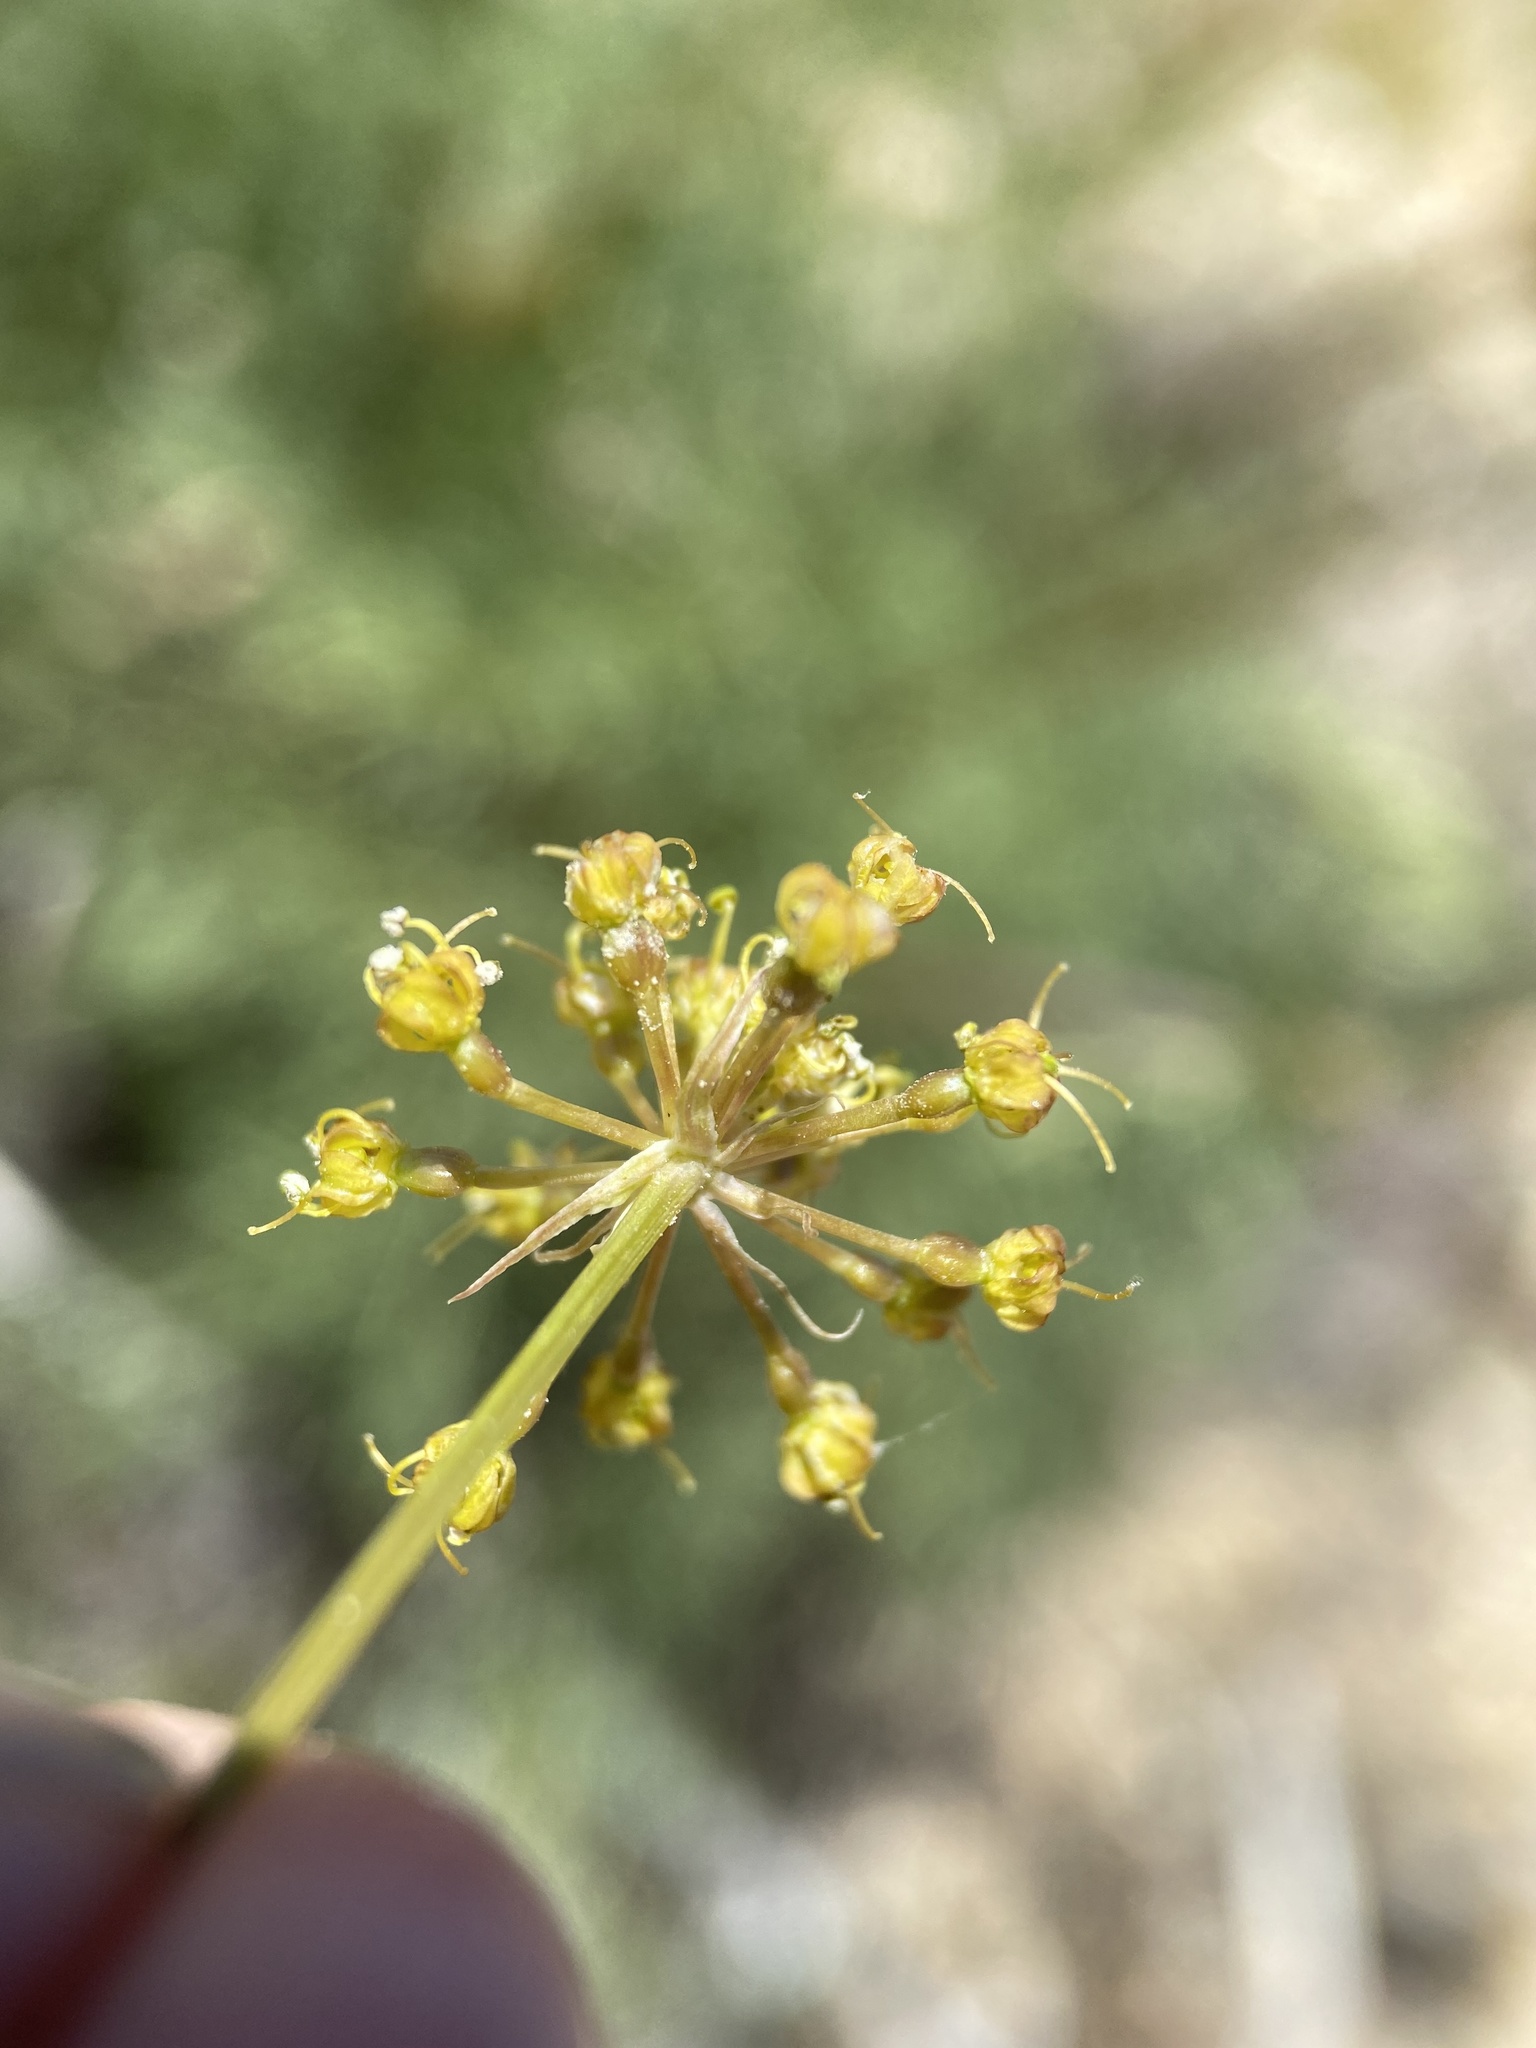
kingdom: Plantae
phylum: Tracheophyta
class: Magnoliopsida
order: Apiales
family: Apiaceae
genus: Lomatium
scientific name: Lomatium multifidum
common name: Carrot-leaved biscuitroot
